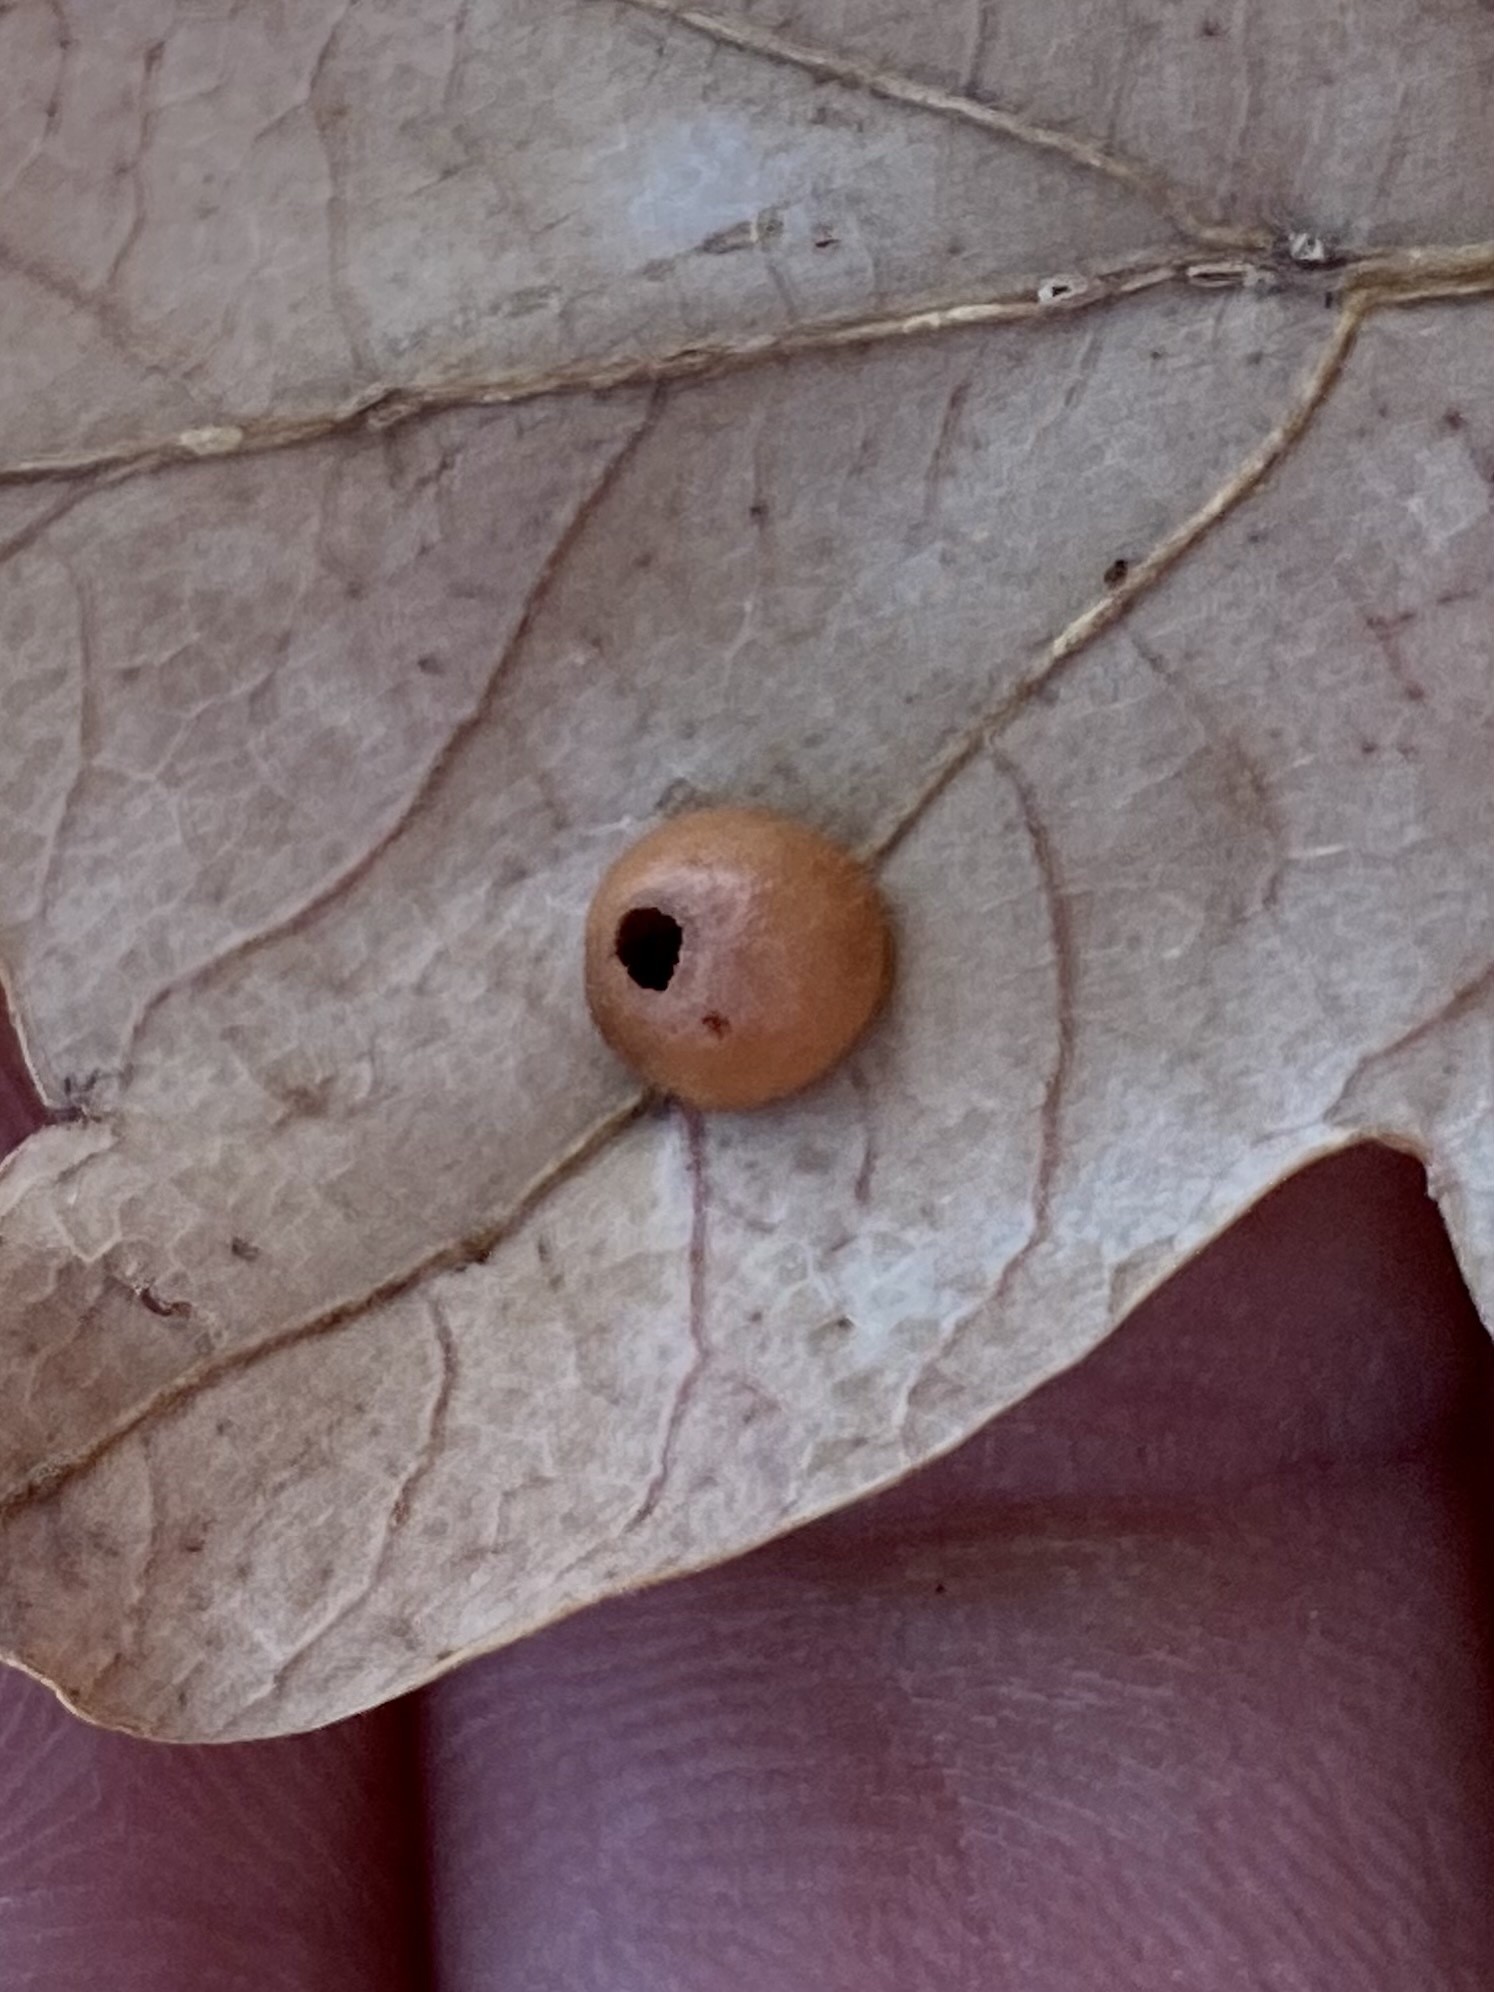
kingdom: Animalia
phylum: Arthropoda
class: Insecta
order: Hymenoptera
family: Cynipidae
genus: Trigonaspis
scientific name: Trigonaspis
